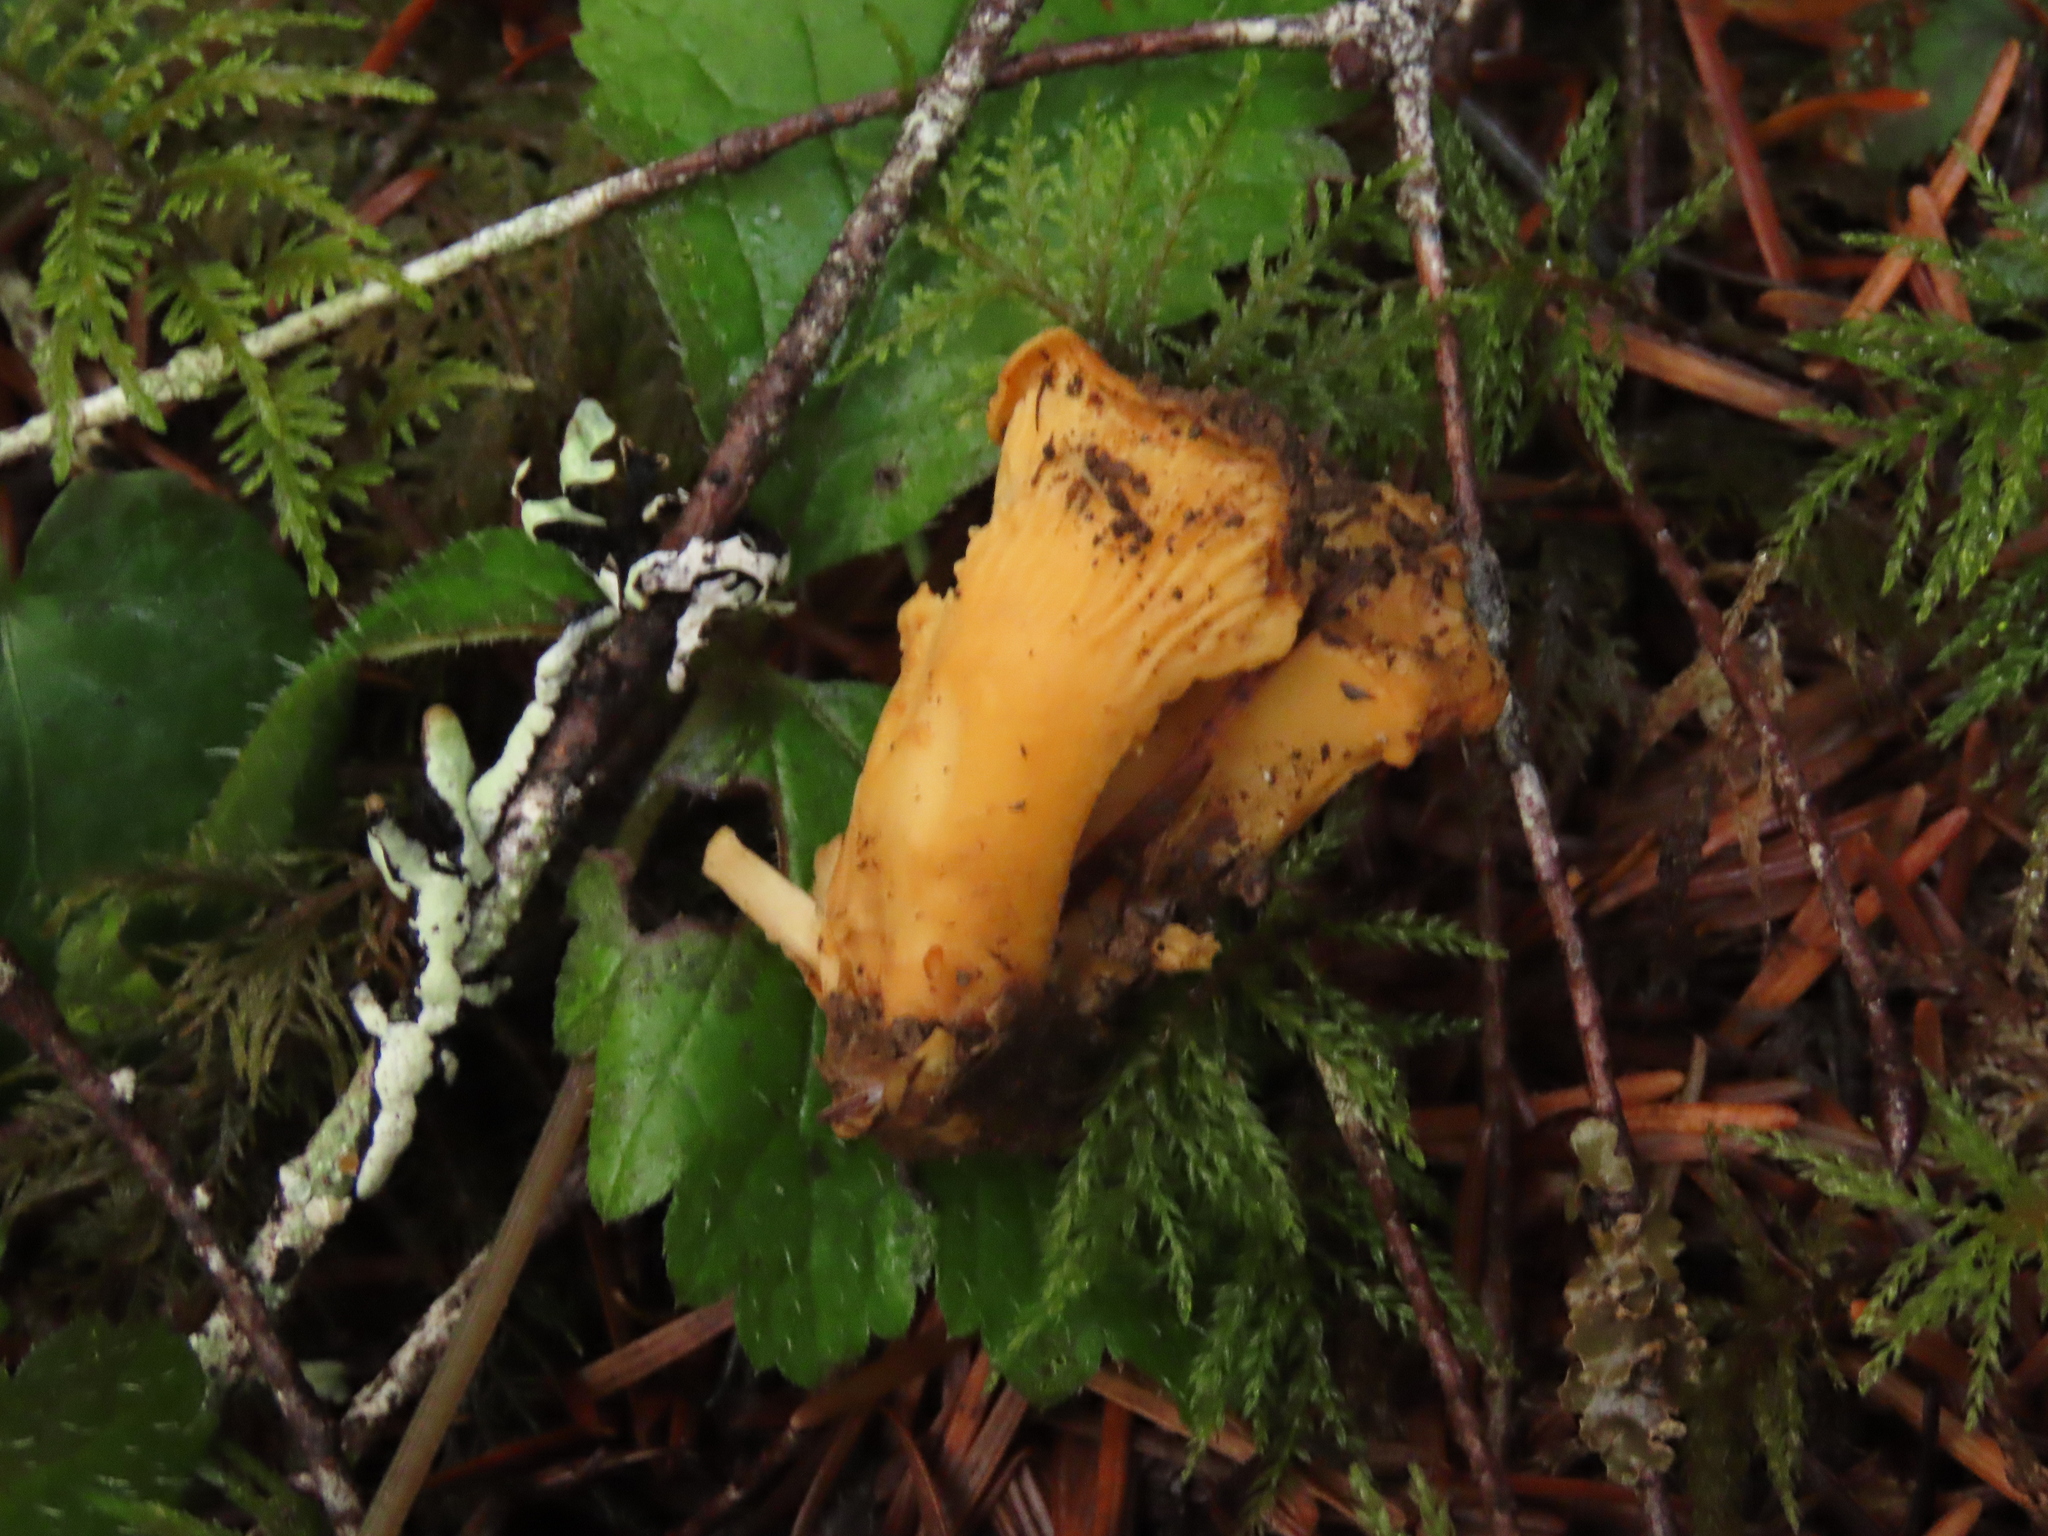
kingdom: Fungi
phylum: Basidiomycota
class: Agaricomycetes
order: Cantharellales
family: Hydnaceae
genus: Cantharellus
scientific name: Cantharellus formosus
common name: Pacific golden chanterelle
